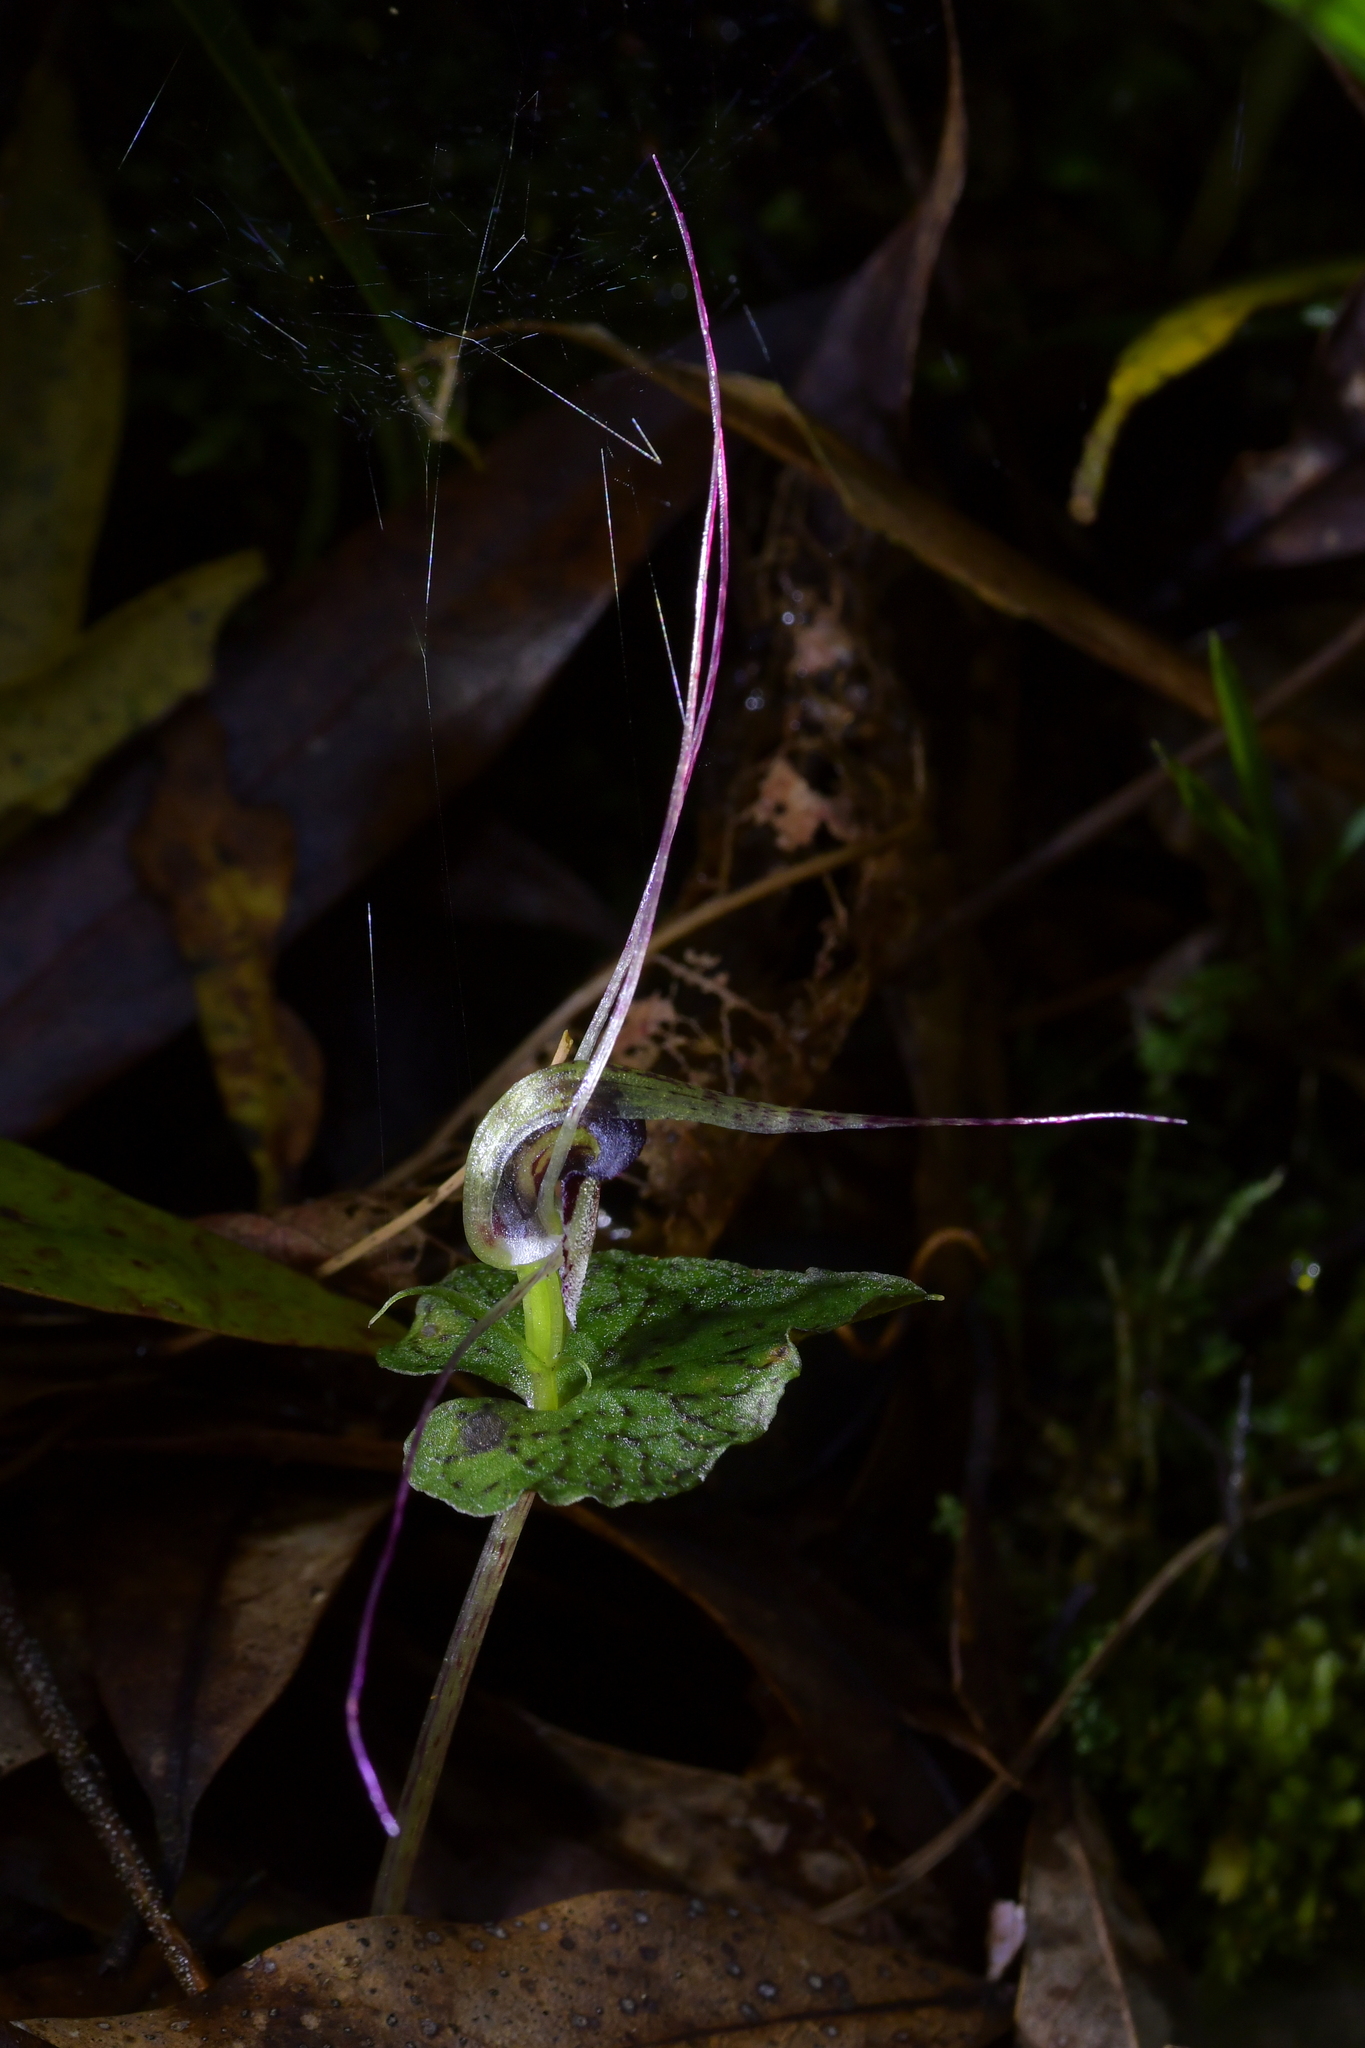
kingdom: Plantae
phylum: Tracheophyta
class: Liliopsida
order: Asparagales
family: Orchidaceae
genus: Corybas
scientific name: Corybas acuminatus
